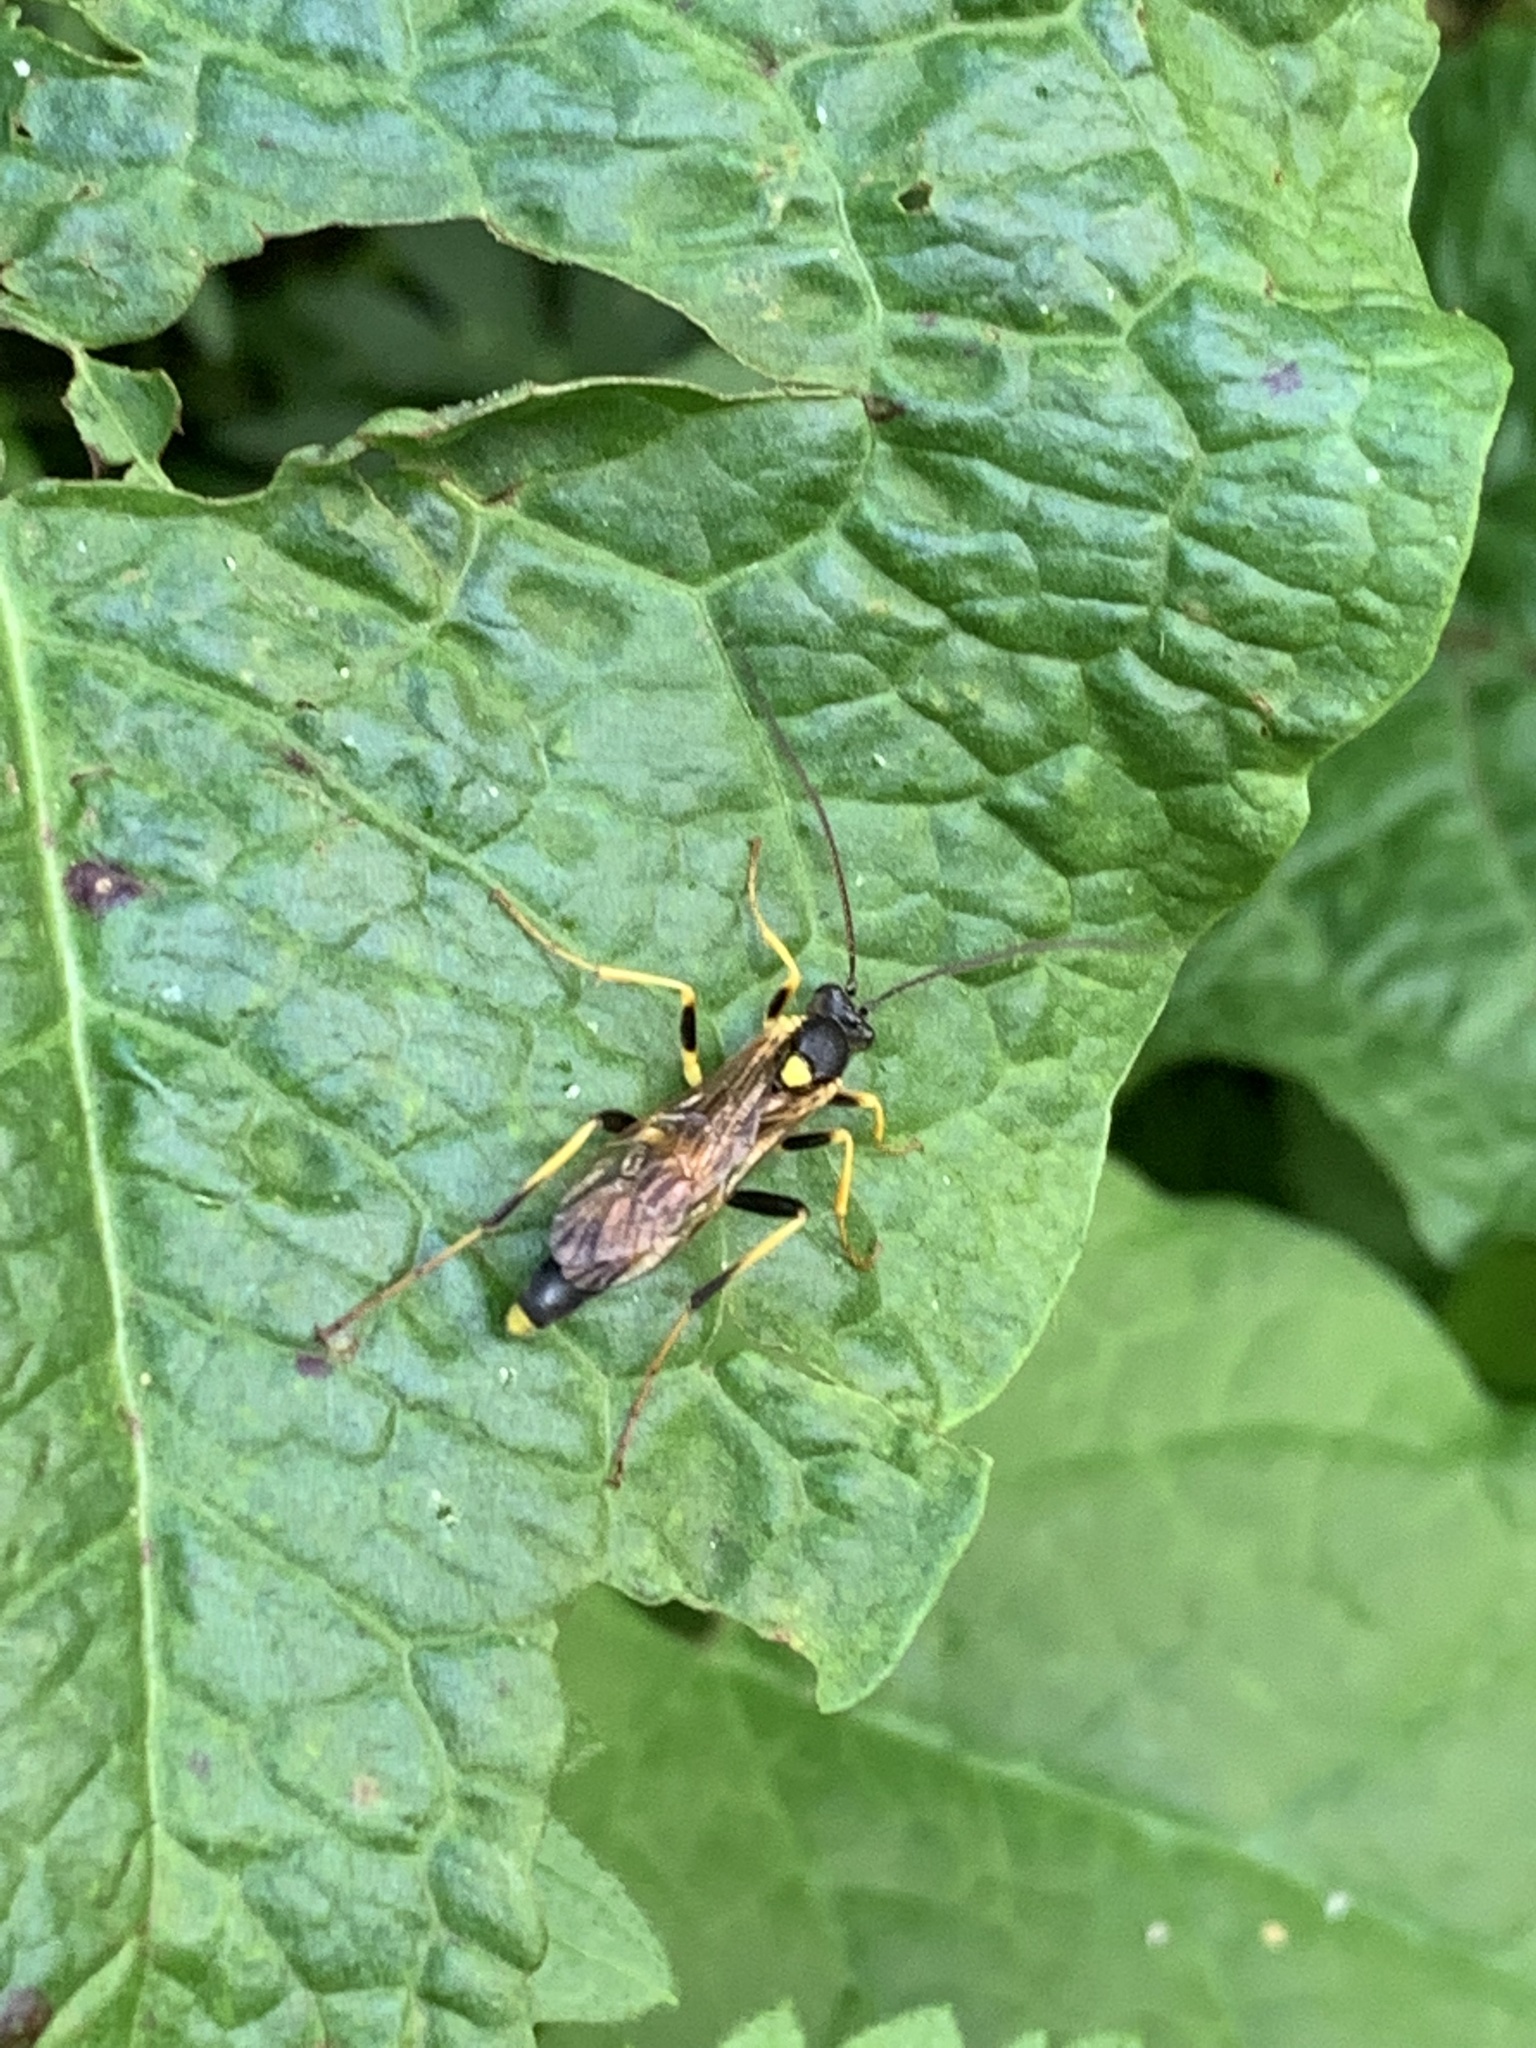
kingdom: Animalia
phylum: Arthropoda
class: Insecta
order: Hymenoptera
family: Ichneumonidae
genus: Amblyteles
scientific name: Amblyteles armatorius
